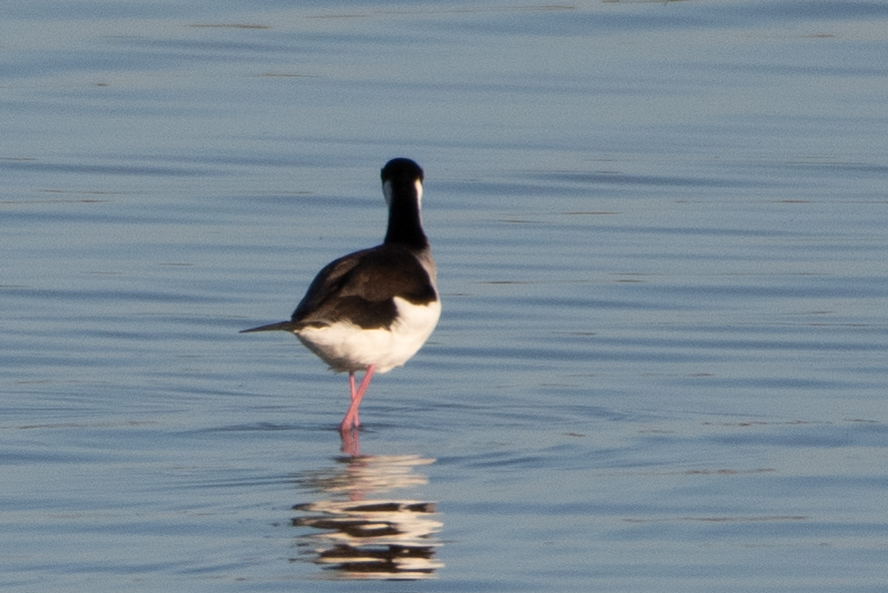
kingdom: Animalia
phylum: Chordata
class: Aves
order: Charadriiformes
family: Recurvirostridae
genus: Himantopus
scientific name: Himantopus mexicanus
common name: Black-necked stilt
